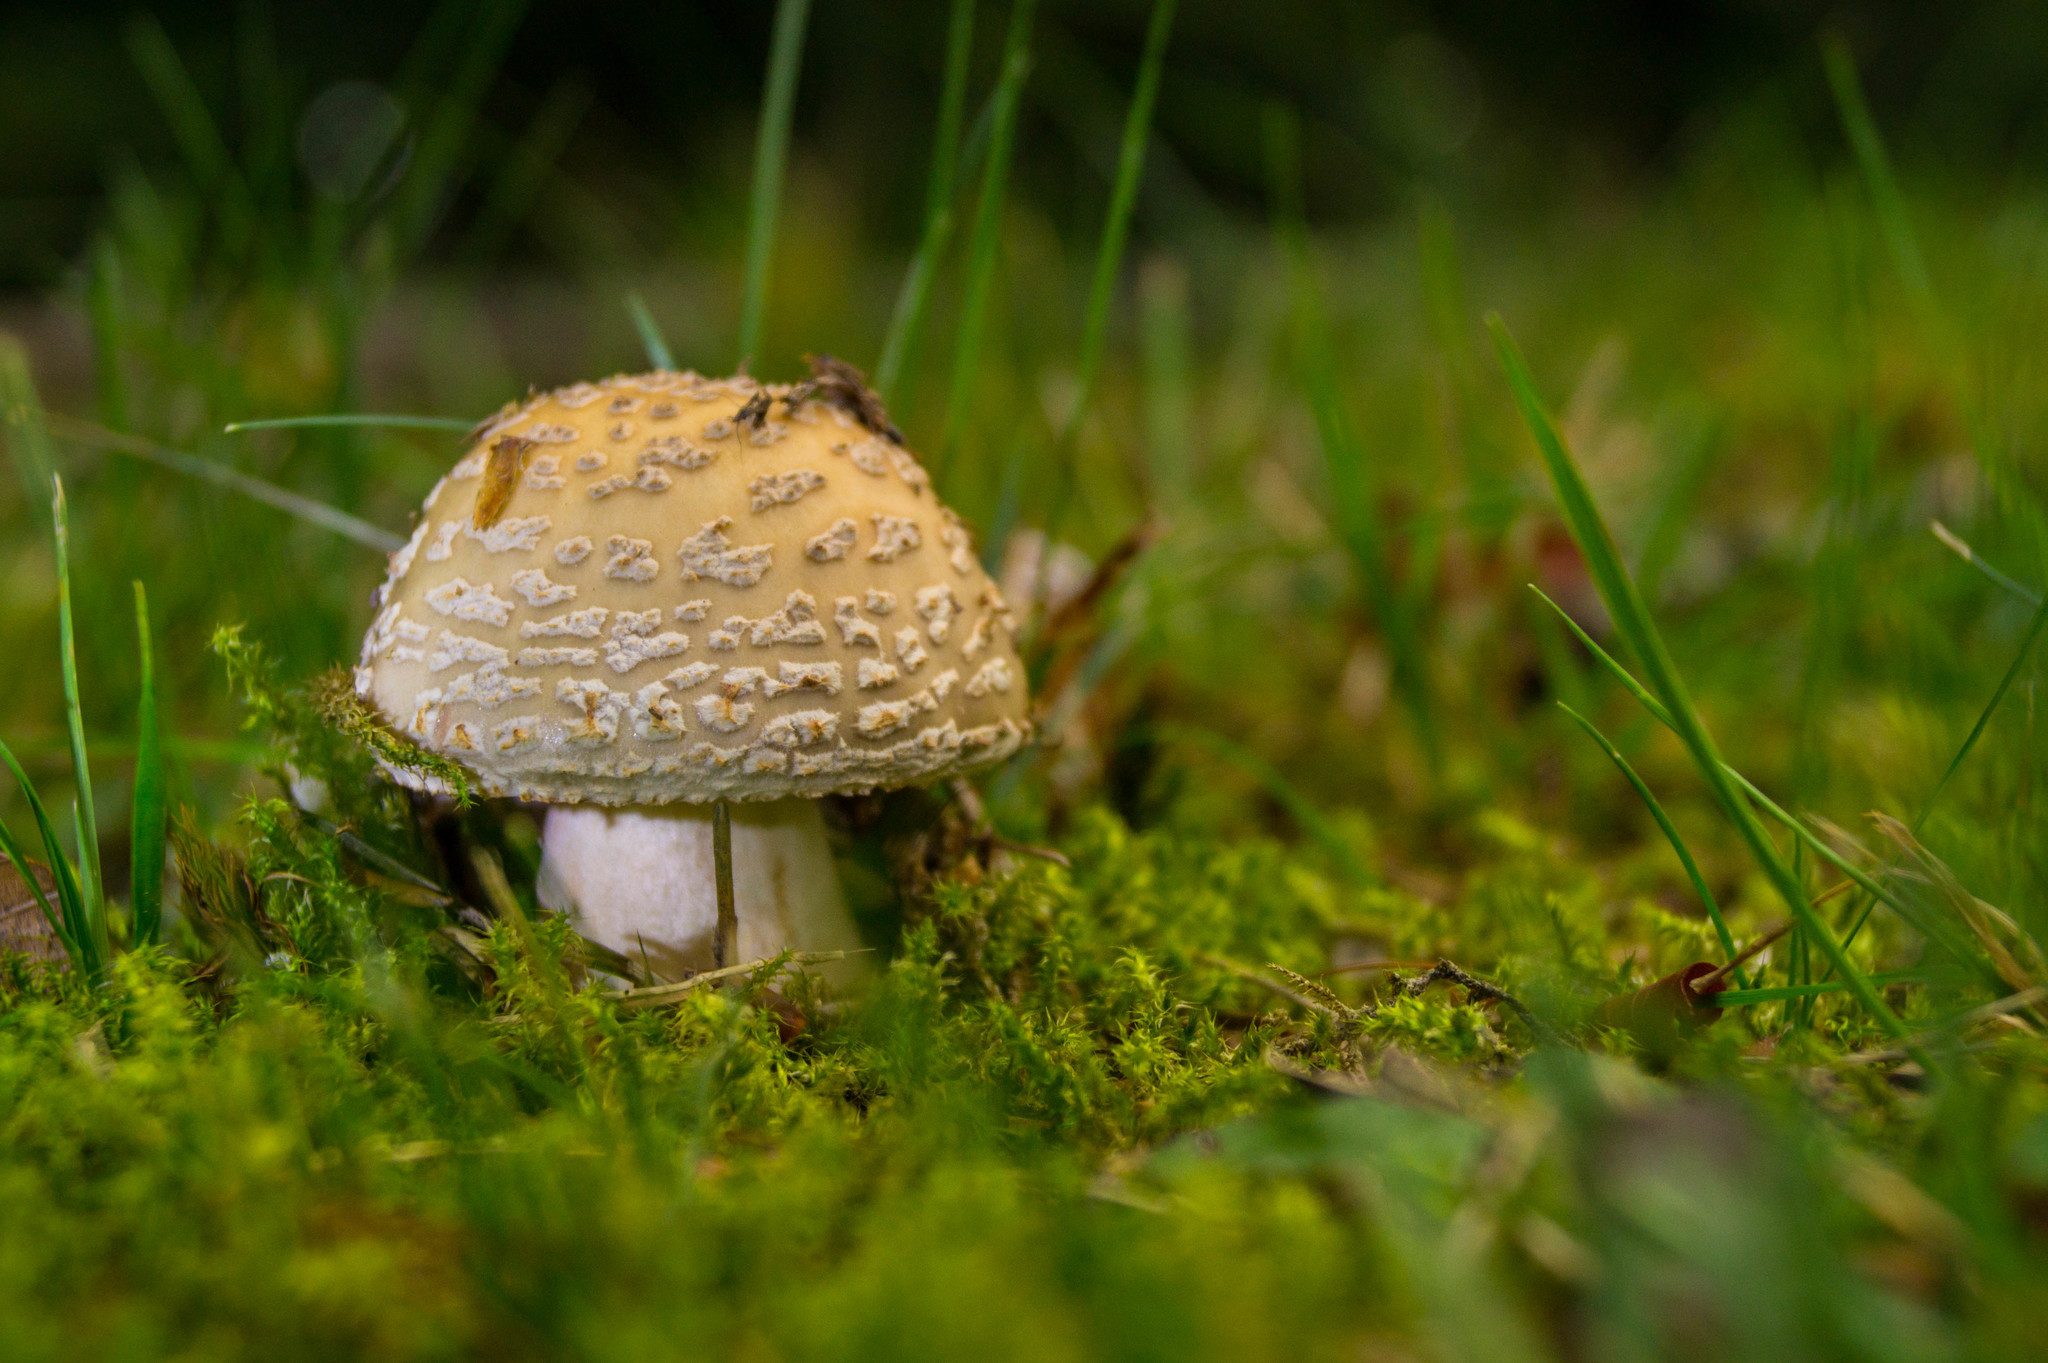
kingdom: Fungi
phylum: Basidiomycota
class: Agaricomycetes
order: Agaricales
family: Amanitaceae
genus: Amanita
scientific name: Amanita rubescens
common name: Blusher
